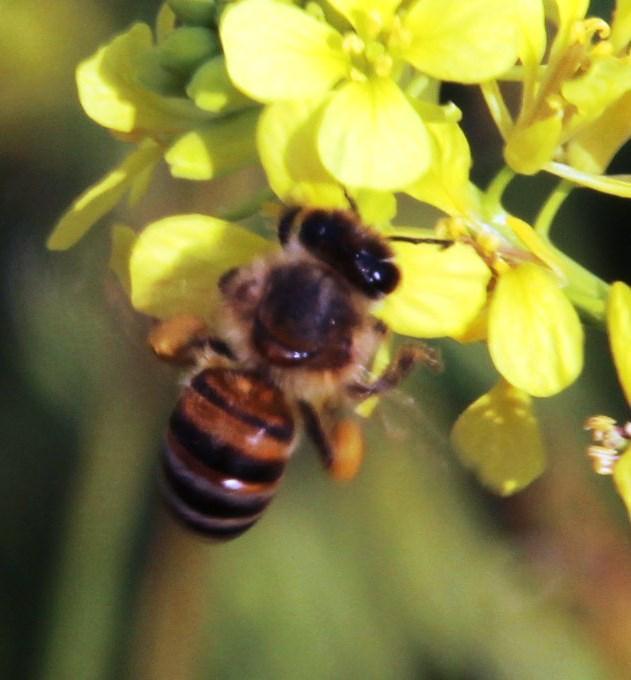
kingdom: Animalia
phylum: Arthropoda
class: Insecta
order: Hymenoptera
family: Apidae
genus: Apis
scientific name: Apis mellifera
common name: Honey bee
